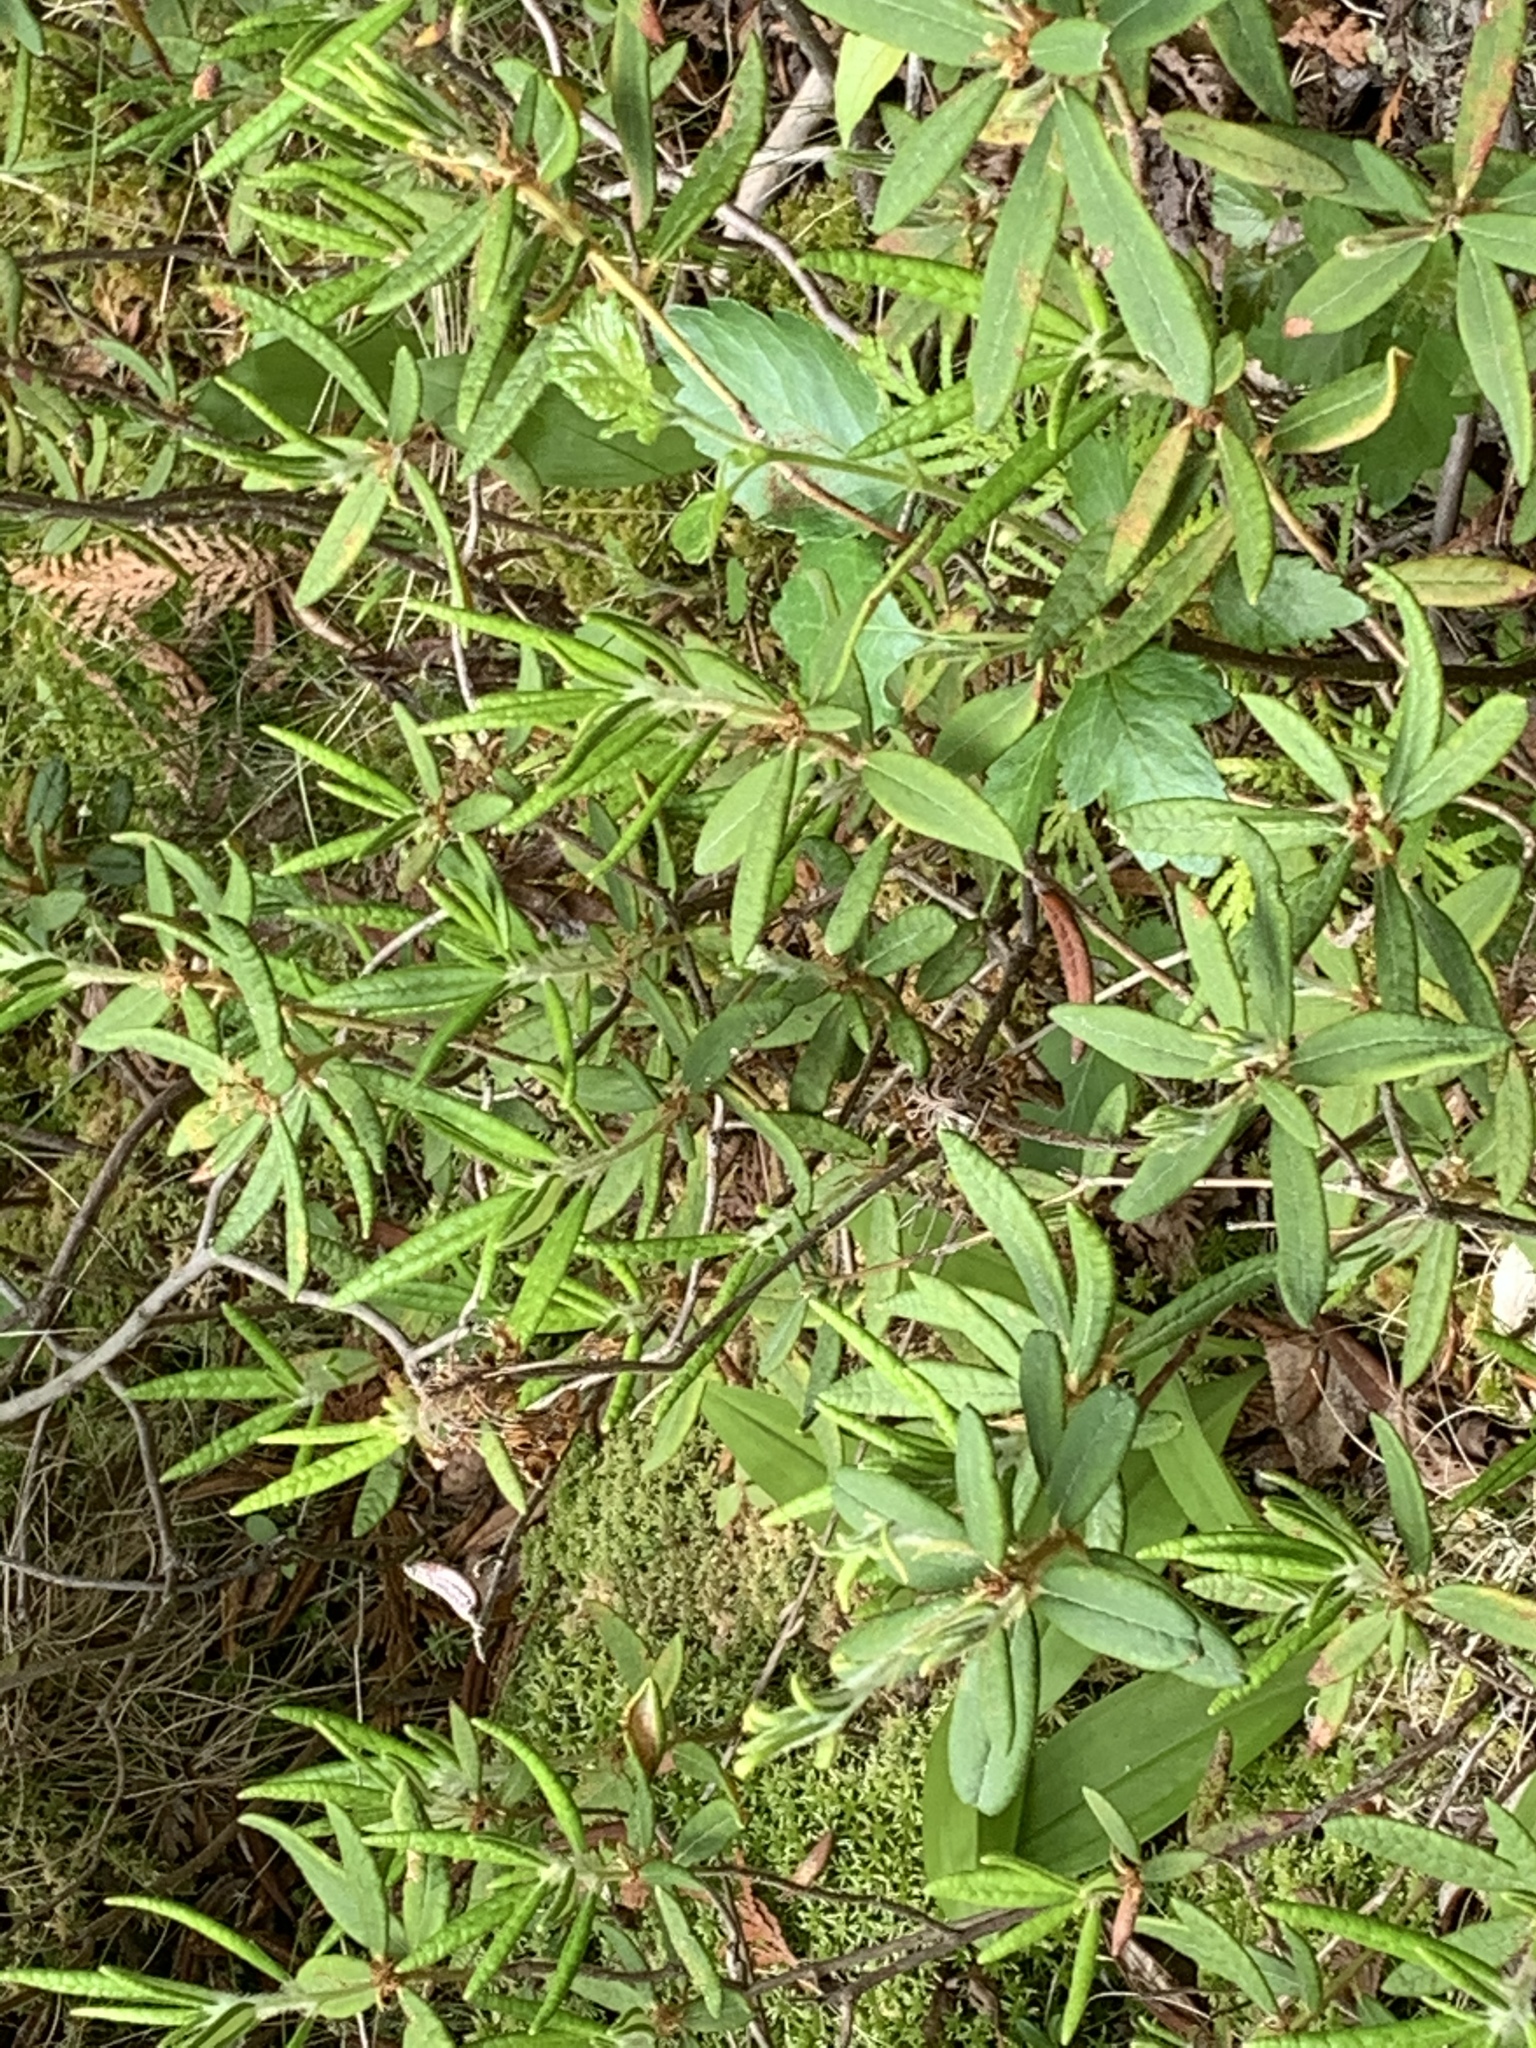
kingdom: Plantae
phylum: Tracheophyta
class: Magnoliopsida
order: Ericales
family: Ericaceae
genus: Rhododendron
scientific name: Rhododendron groenlandicum
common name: Bog labrador tea
